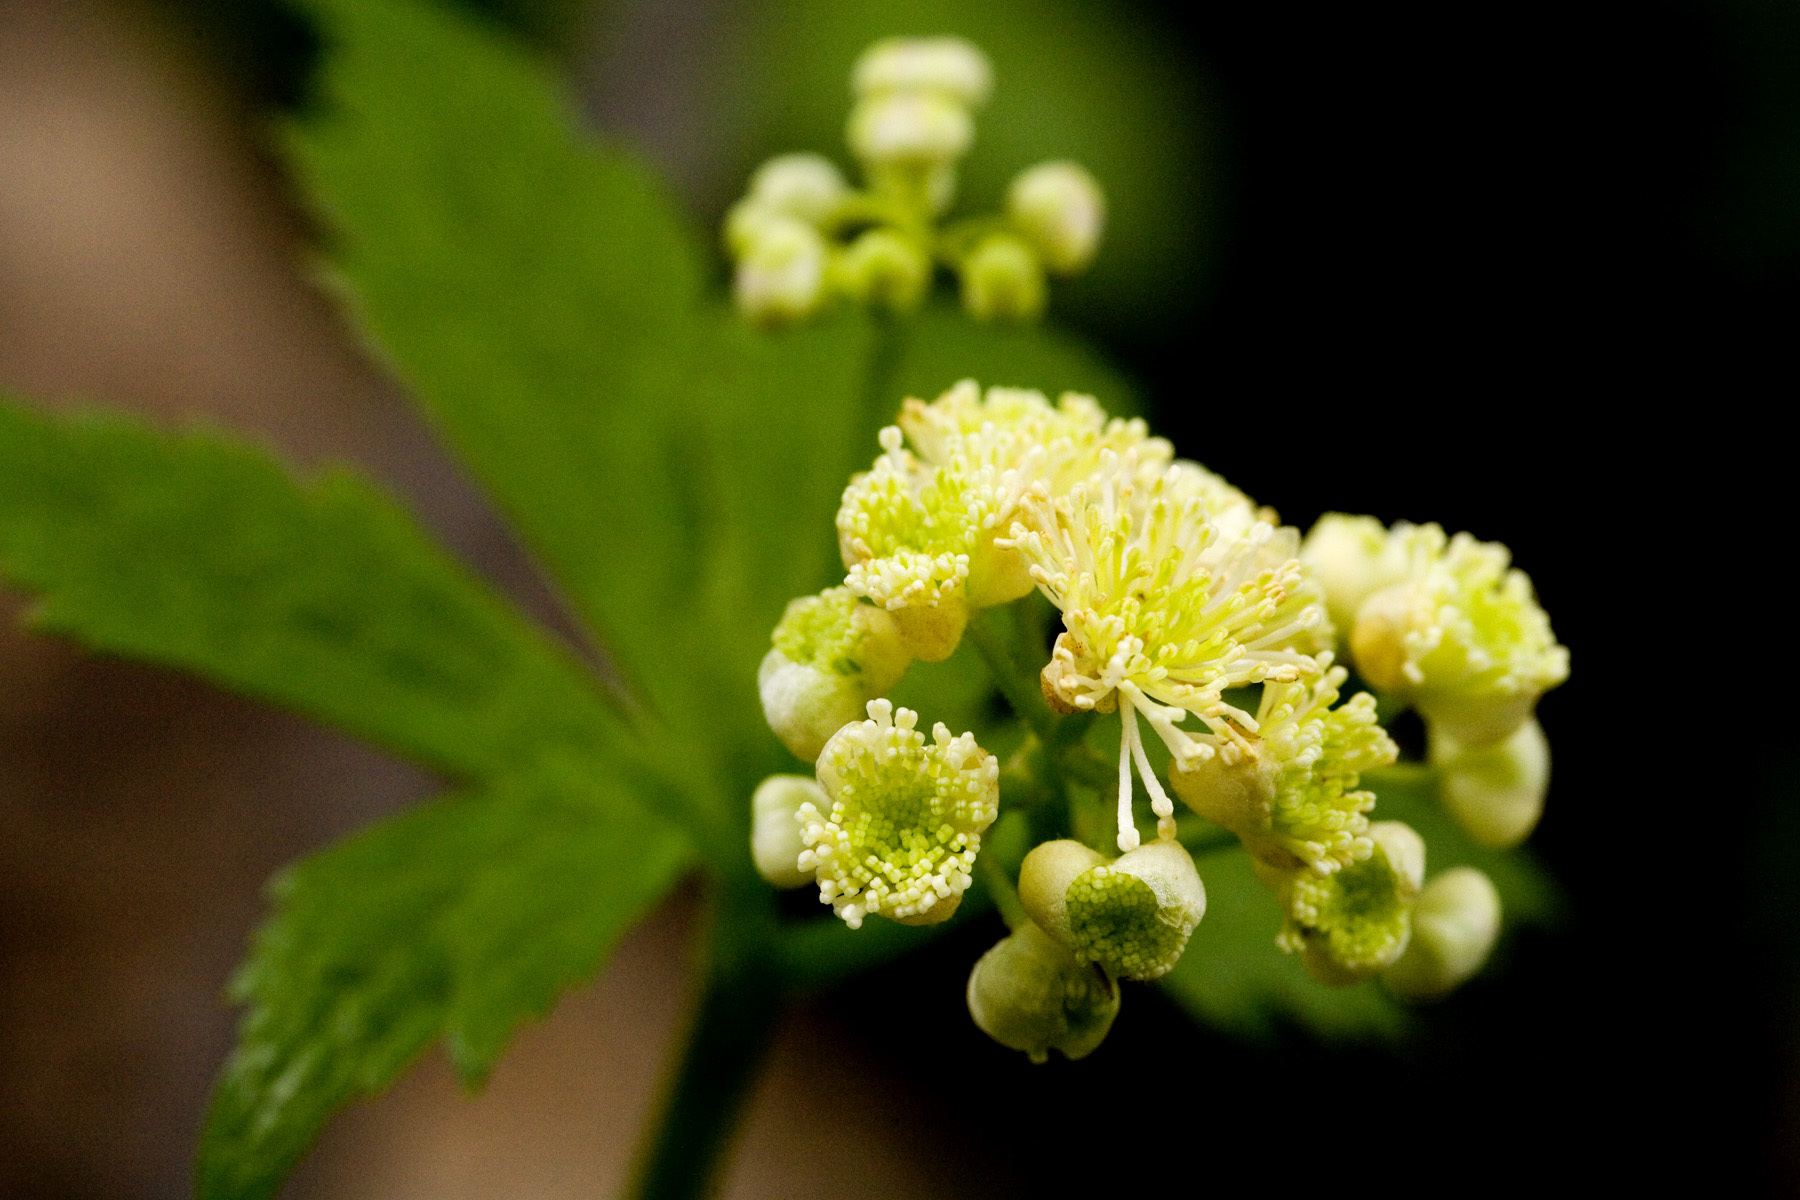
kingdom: Plantae
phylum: Tracheophyta
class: Magnoliopsida
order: Ranunculales
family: Ranunculaceae
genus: Trautvetteria
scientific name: Trautvetteria carolinensis
